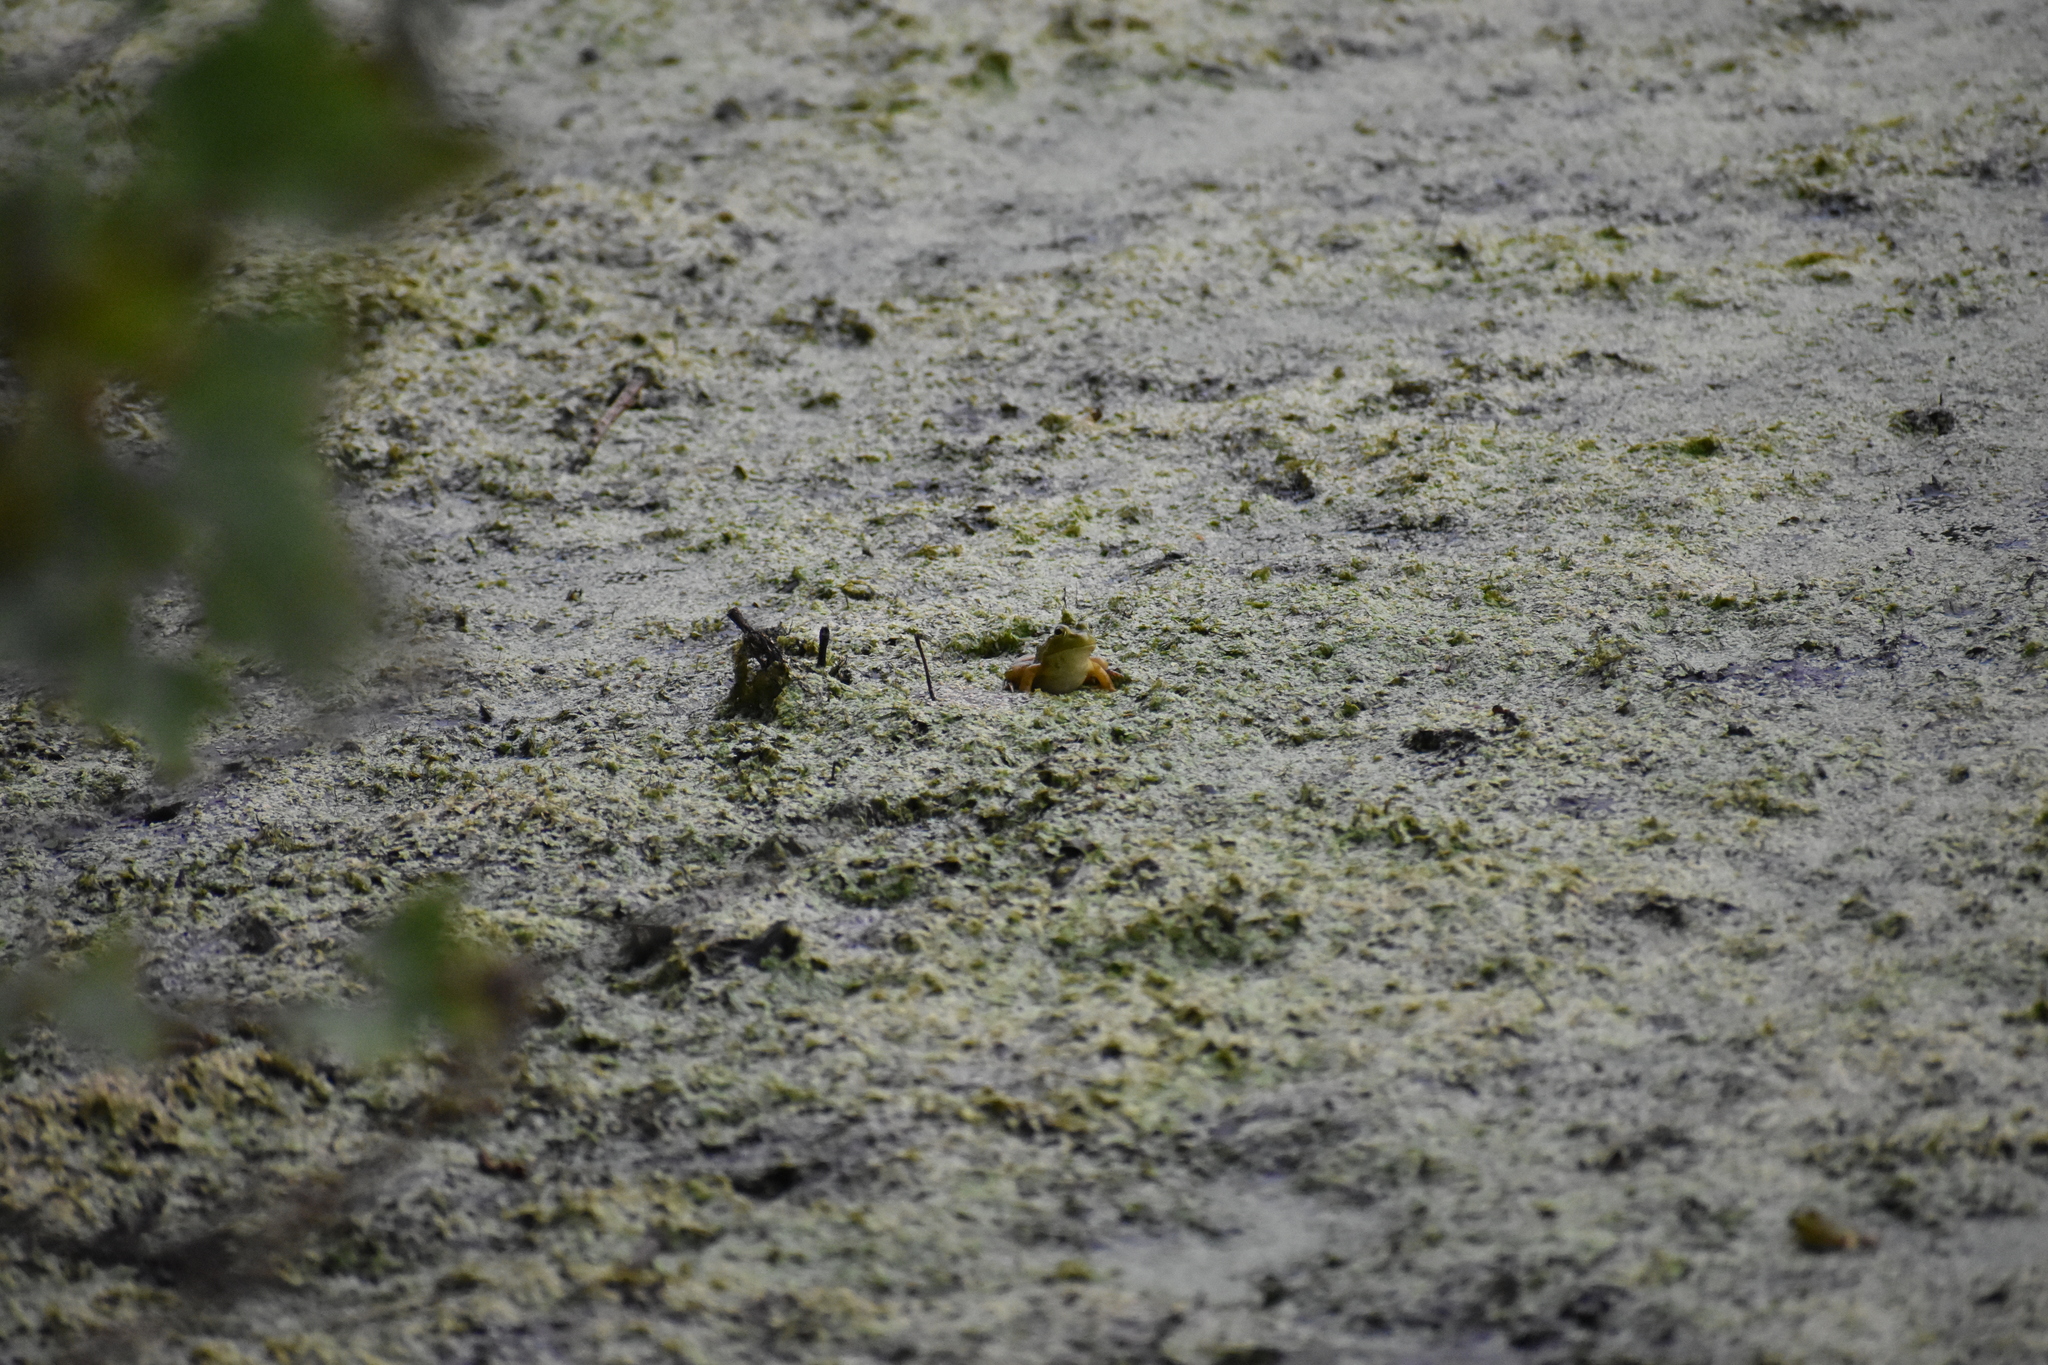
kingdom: Animalia
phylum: Chordata
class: Amphibia
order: Anura
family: Ranidae
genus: Lithobates
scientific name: Lithobates catesbeianus
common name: American bullfrog
